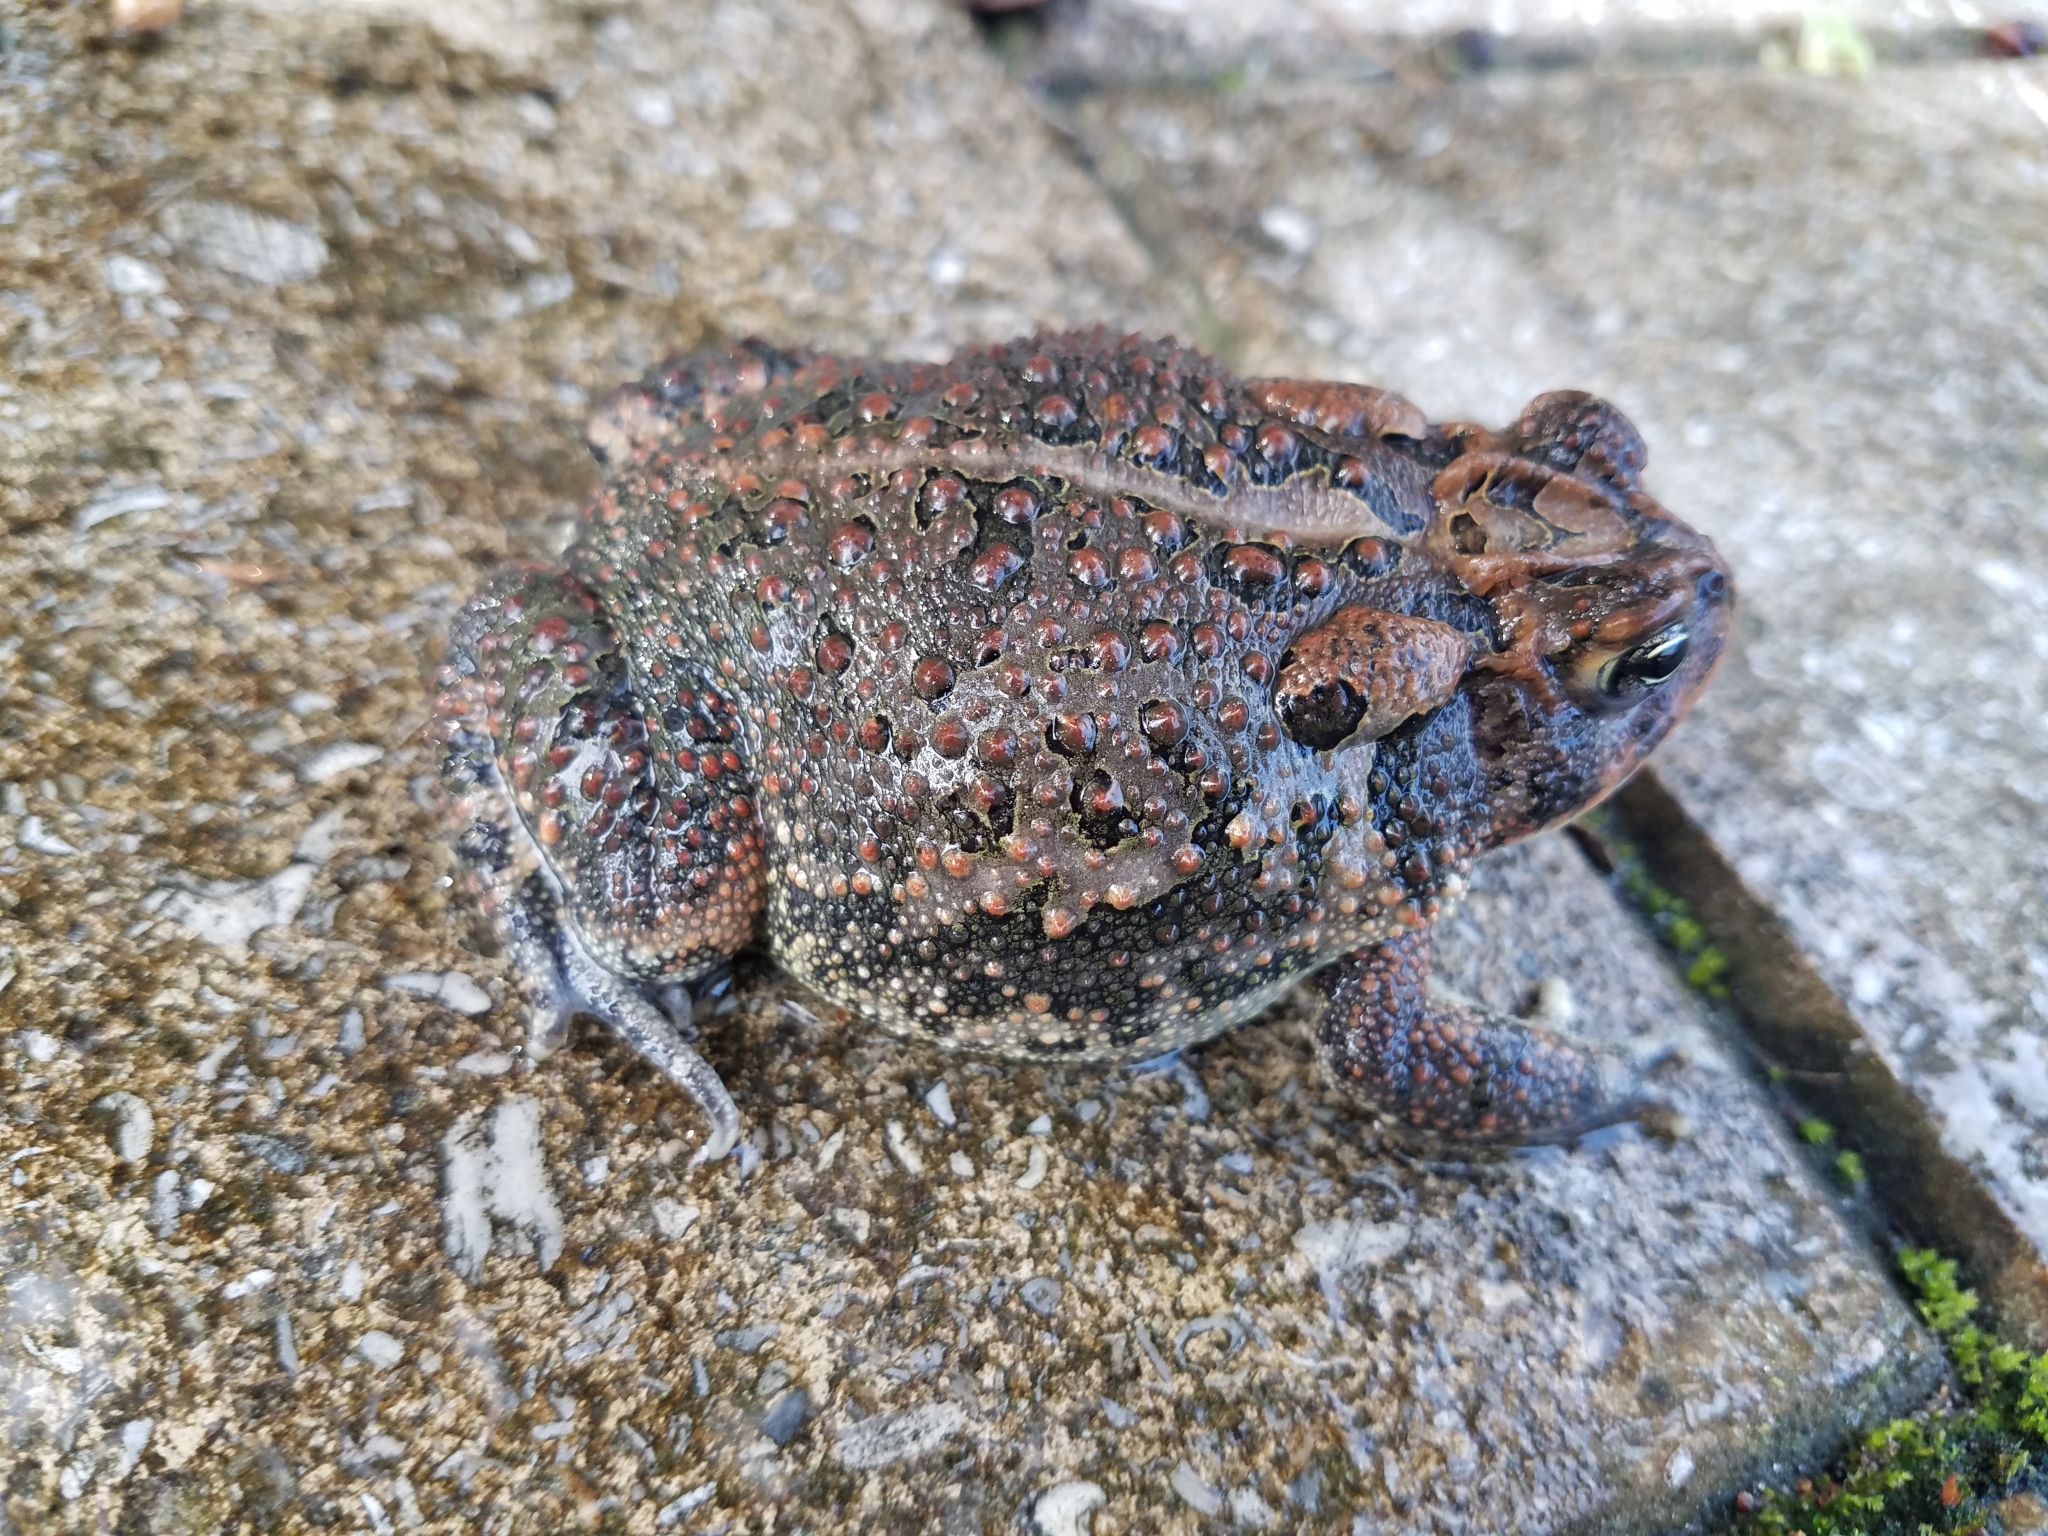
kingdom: Animalia
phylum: Chordata
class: Amphibia
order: Anura
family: Bufonidae
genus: Anaxyrus
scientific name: Anaxyrus terrestris
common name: Southern toad
